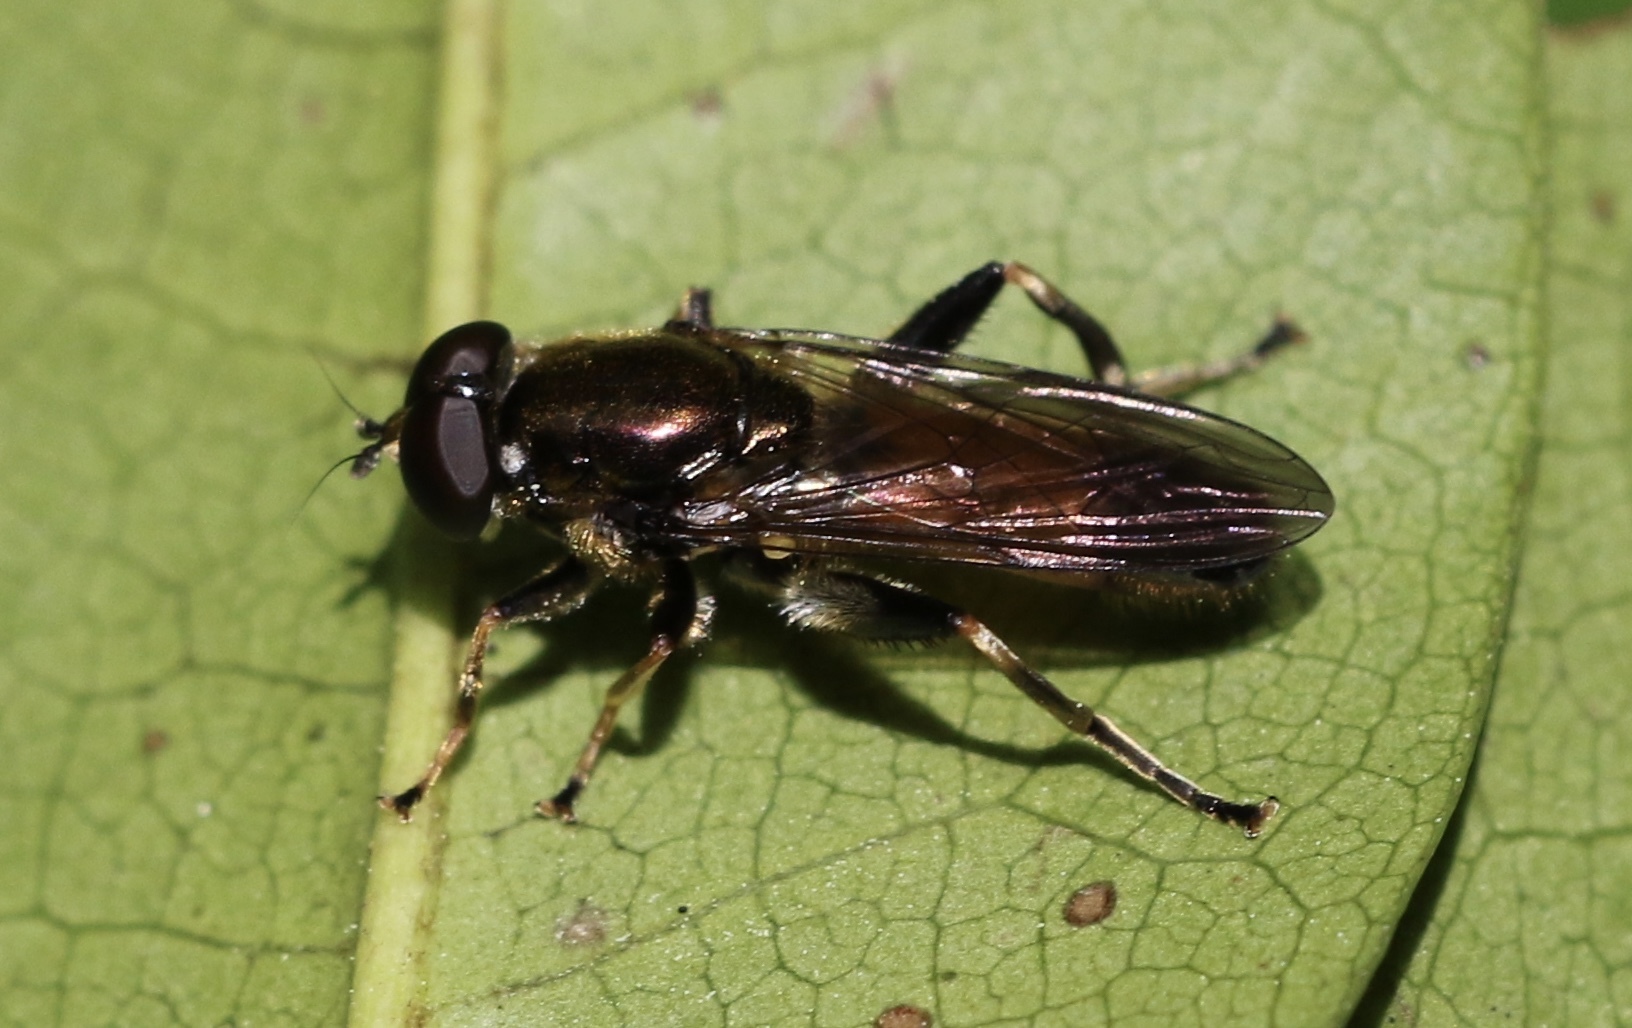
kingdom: Animalia
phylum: Arthropoda
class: Insecta
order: Diptera
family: Syrphidae
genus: Xylota
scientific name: Xylota segnis
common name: Brown-toed forest fly
